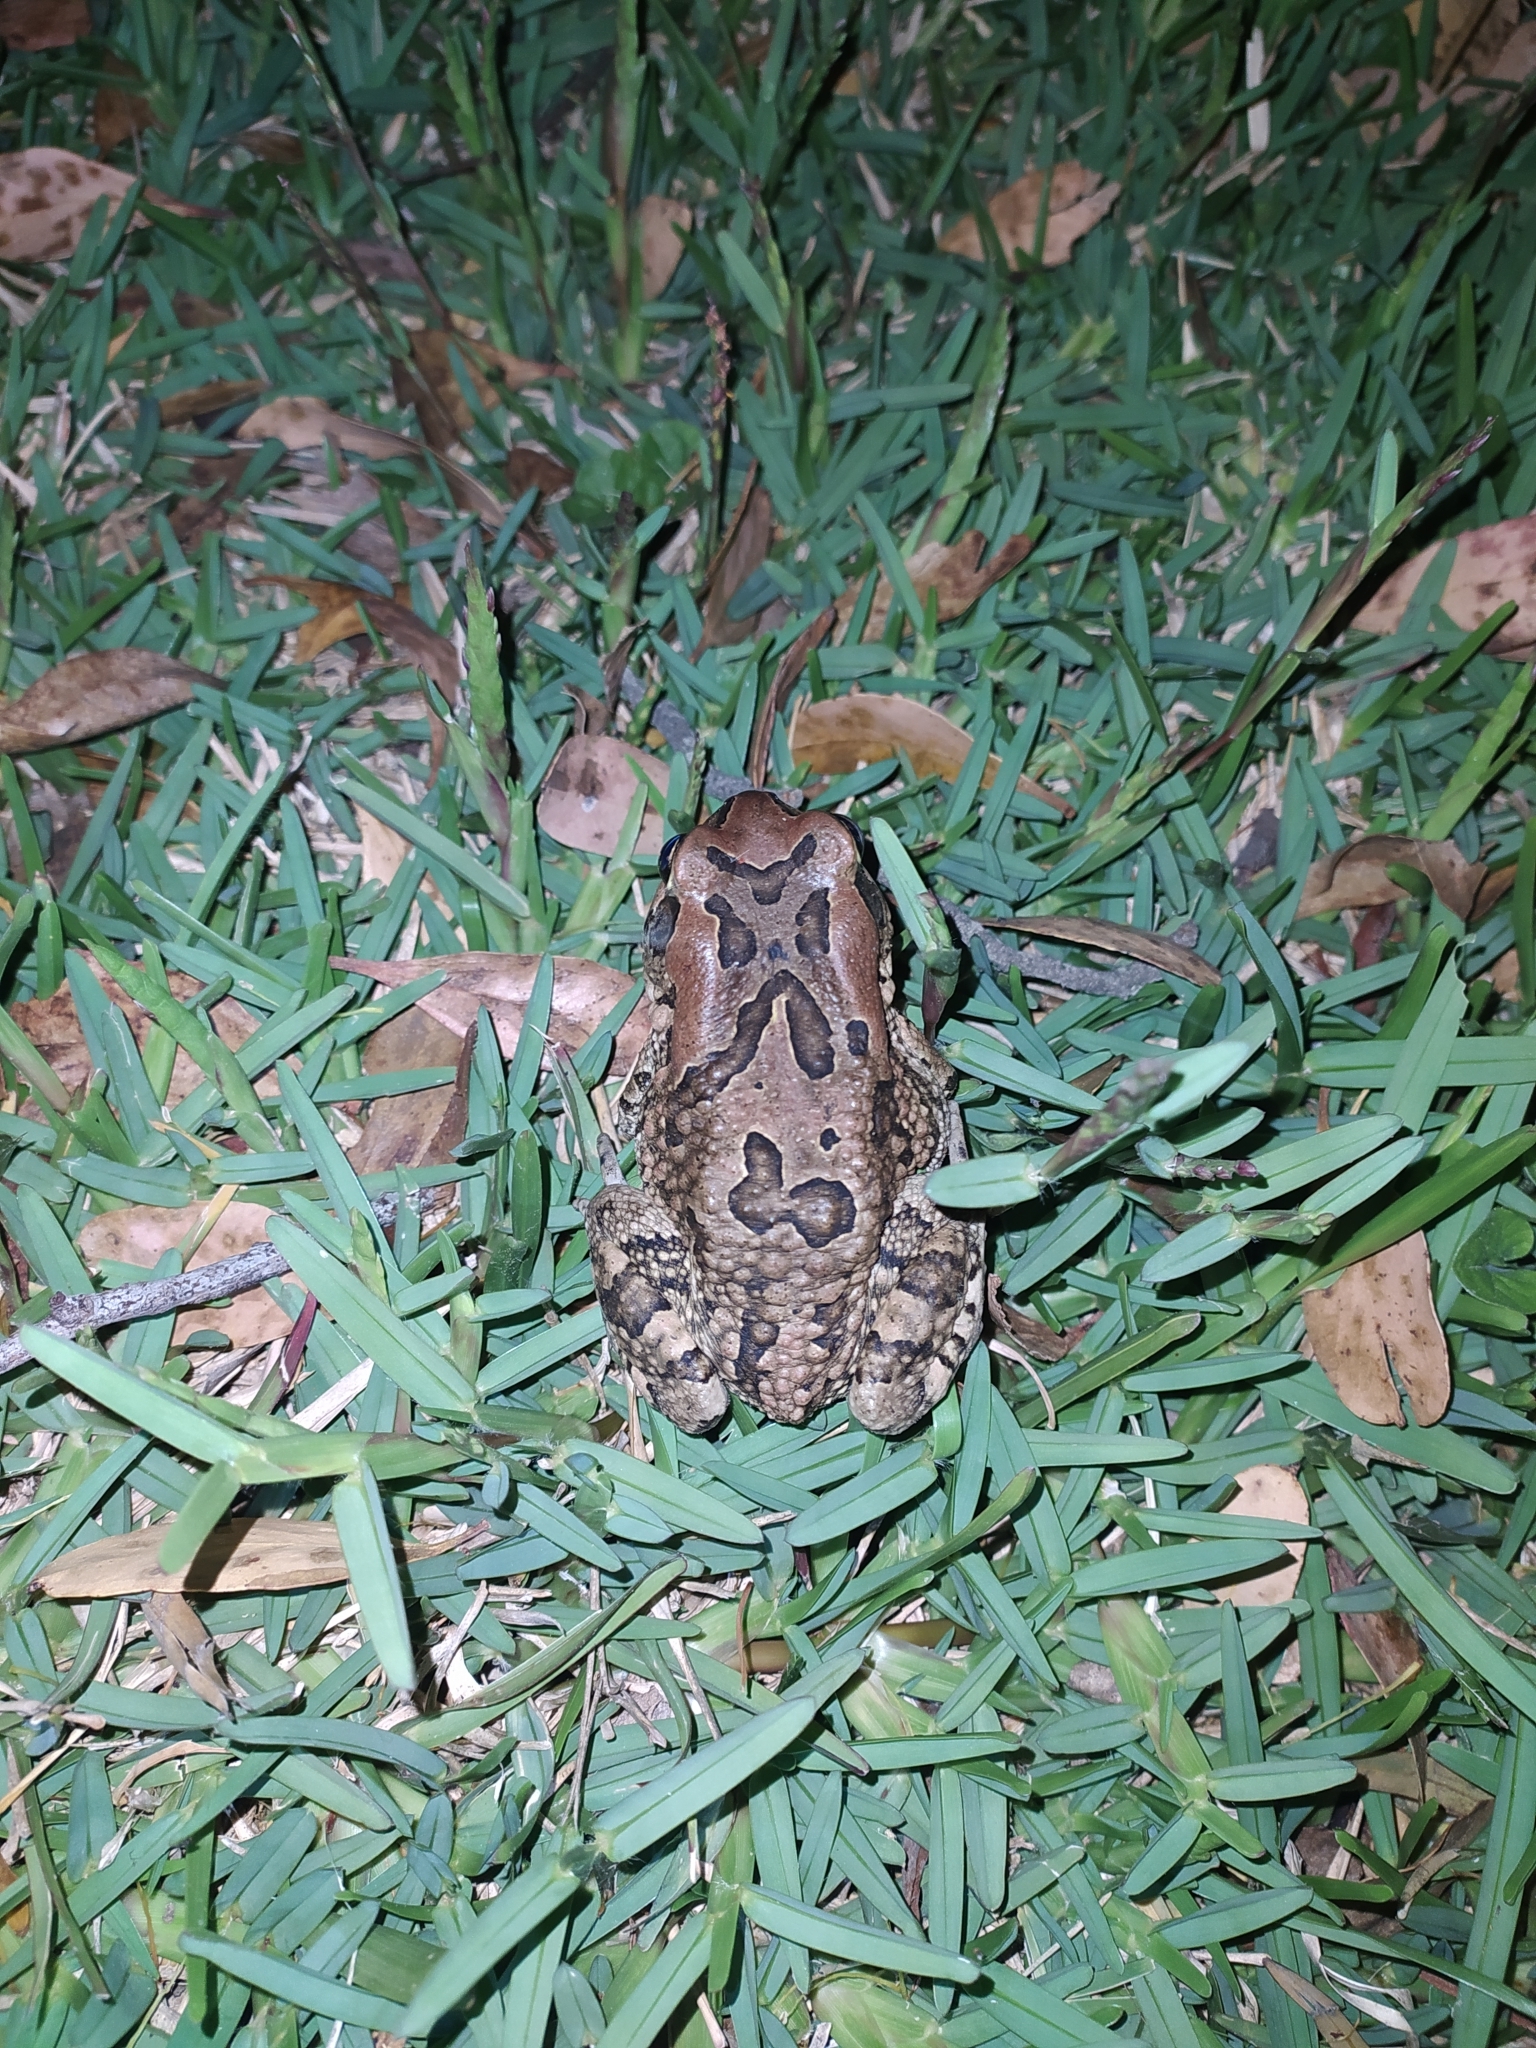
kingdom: Animalia
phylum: Chordata
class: Amphibia
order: Anura
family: Bufonidae
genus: Sclerophrys
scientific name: Sclerophrys capensis
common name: Ranger’s toad
